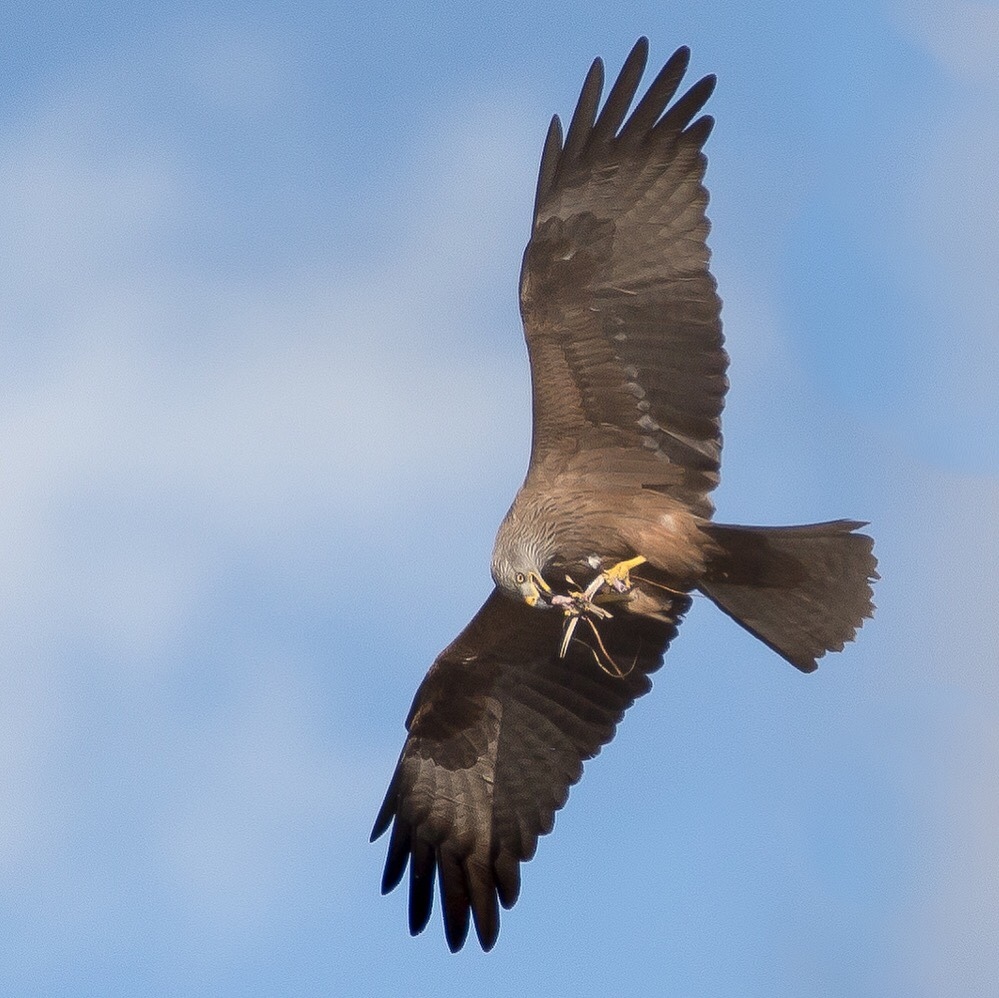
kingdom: Animalia
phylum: Chordata
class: Aves
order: Accipitriformes
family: Accipitridae
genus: Milvus
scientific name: Milvus migrans
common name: Black kite
